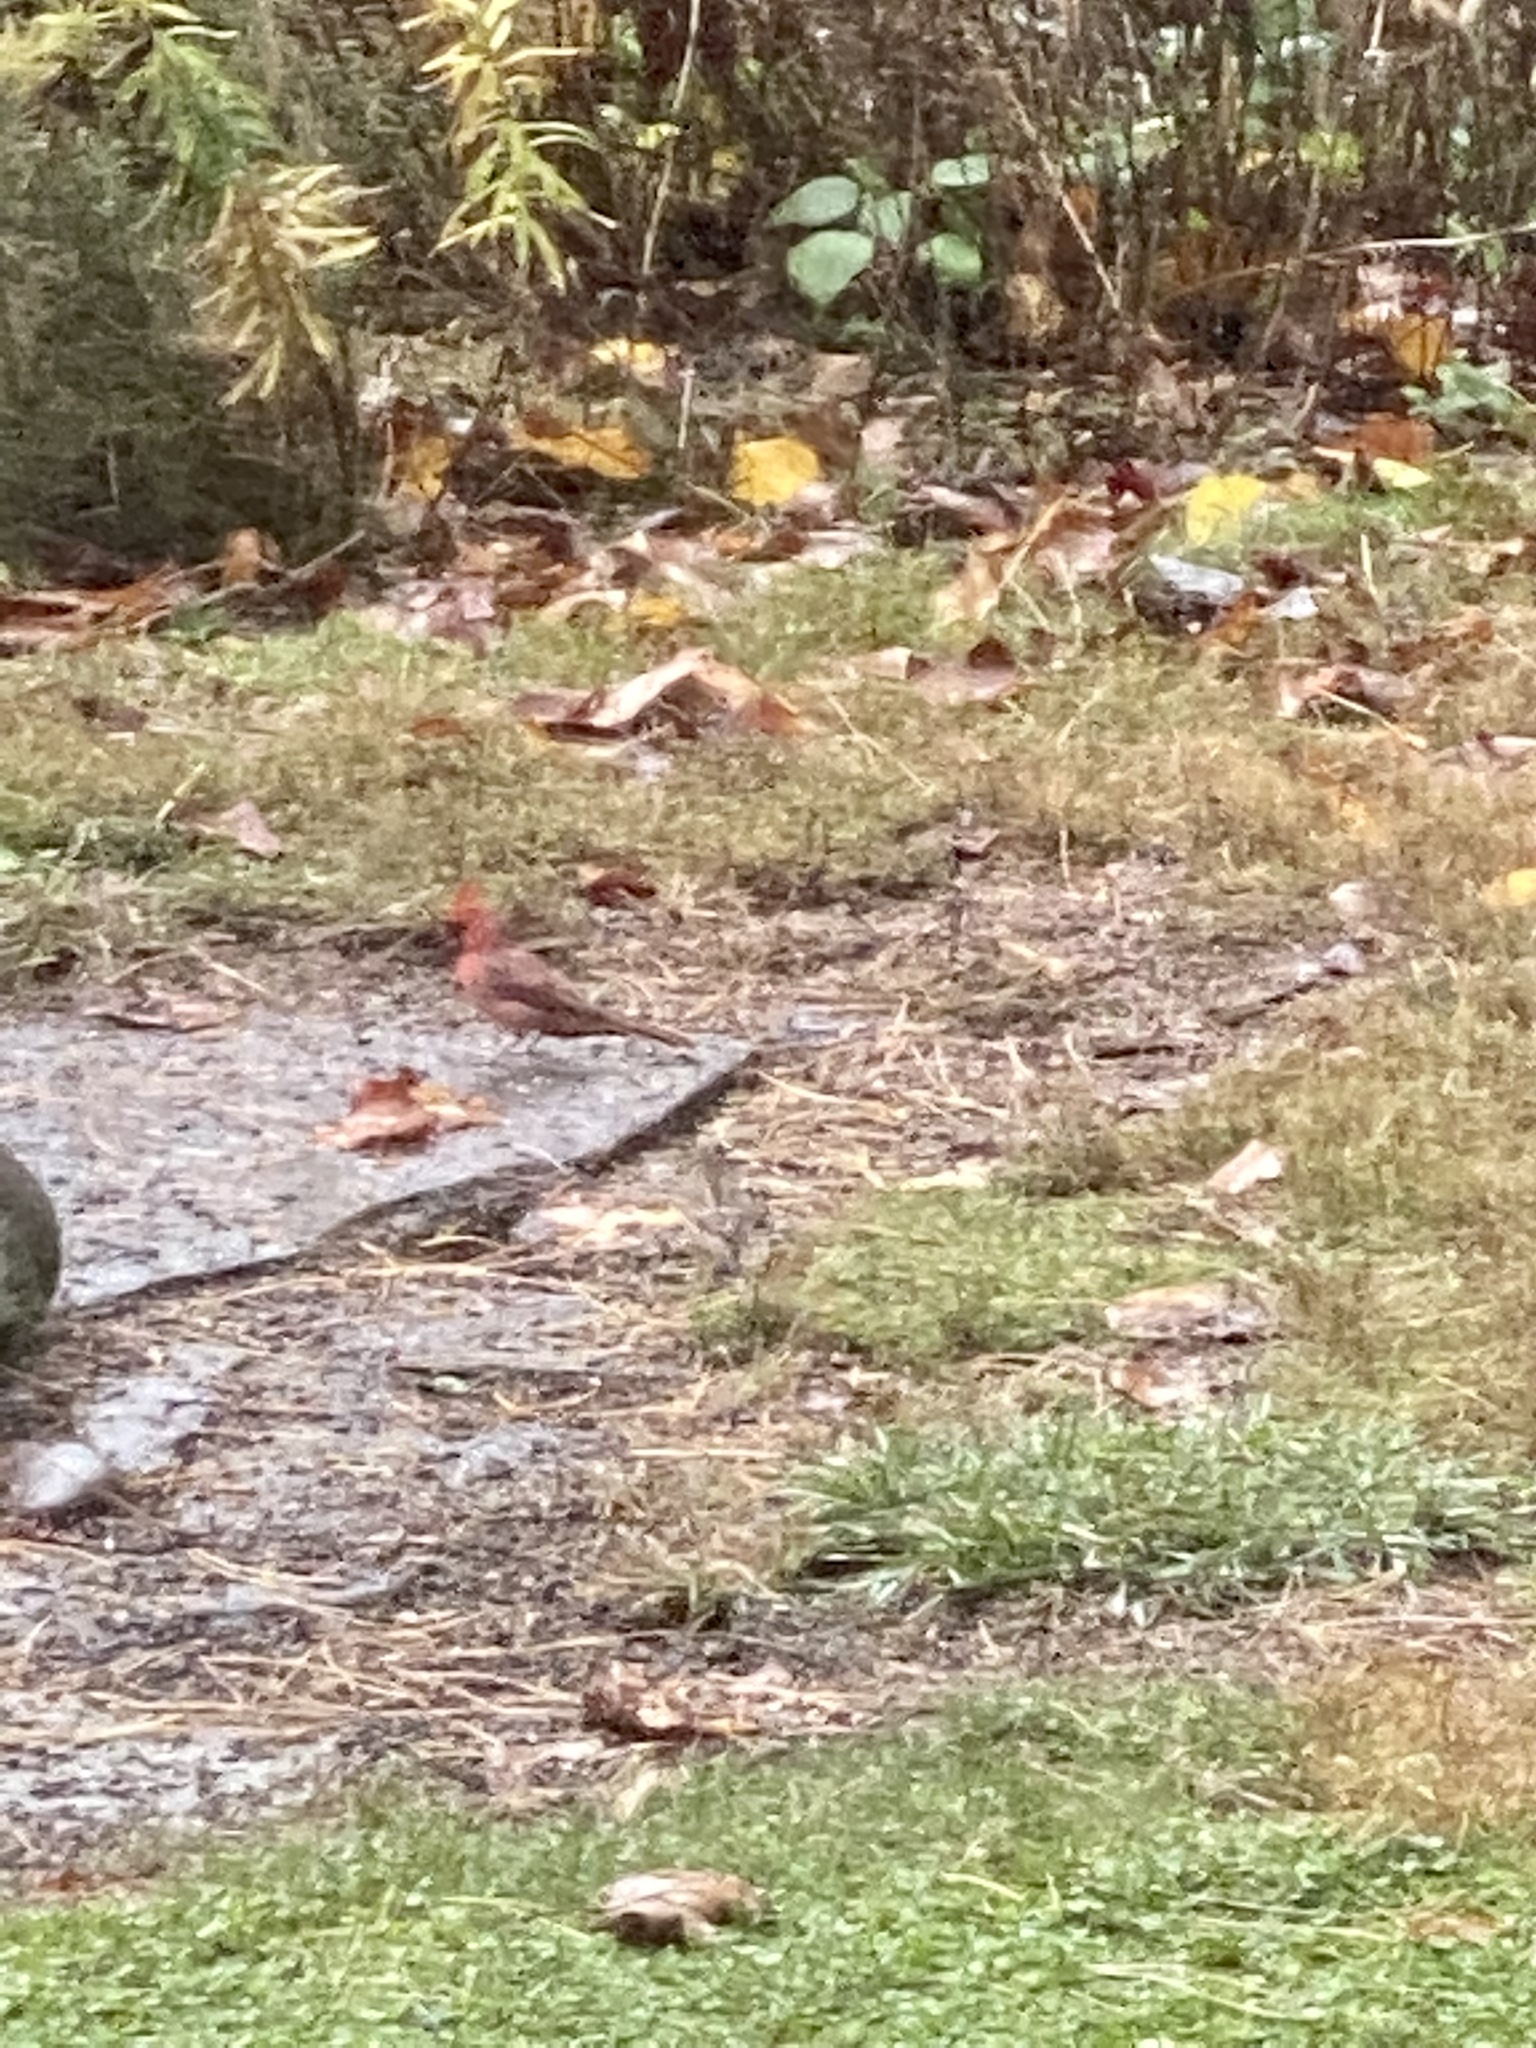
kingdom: Animalia
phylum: Chordata
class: Aves
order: Passeriformes
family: Cardinalidae
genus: Cardinalis
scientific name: Cardinalis cardinalis
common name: Northern cardinal
